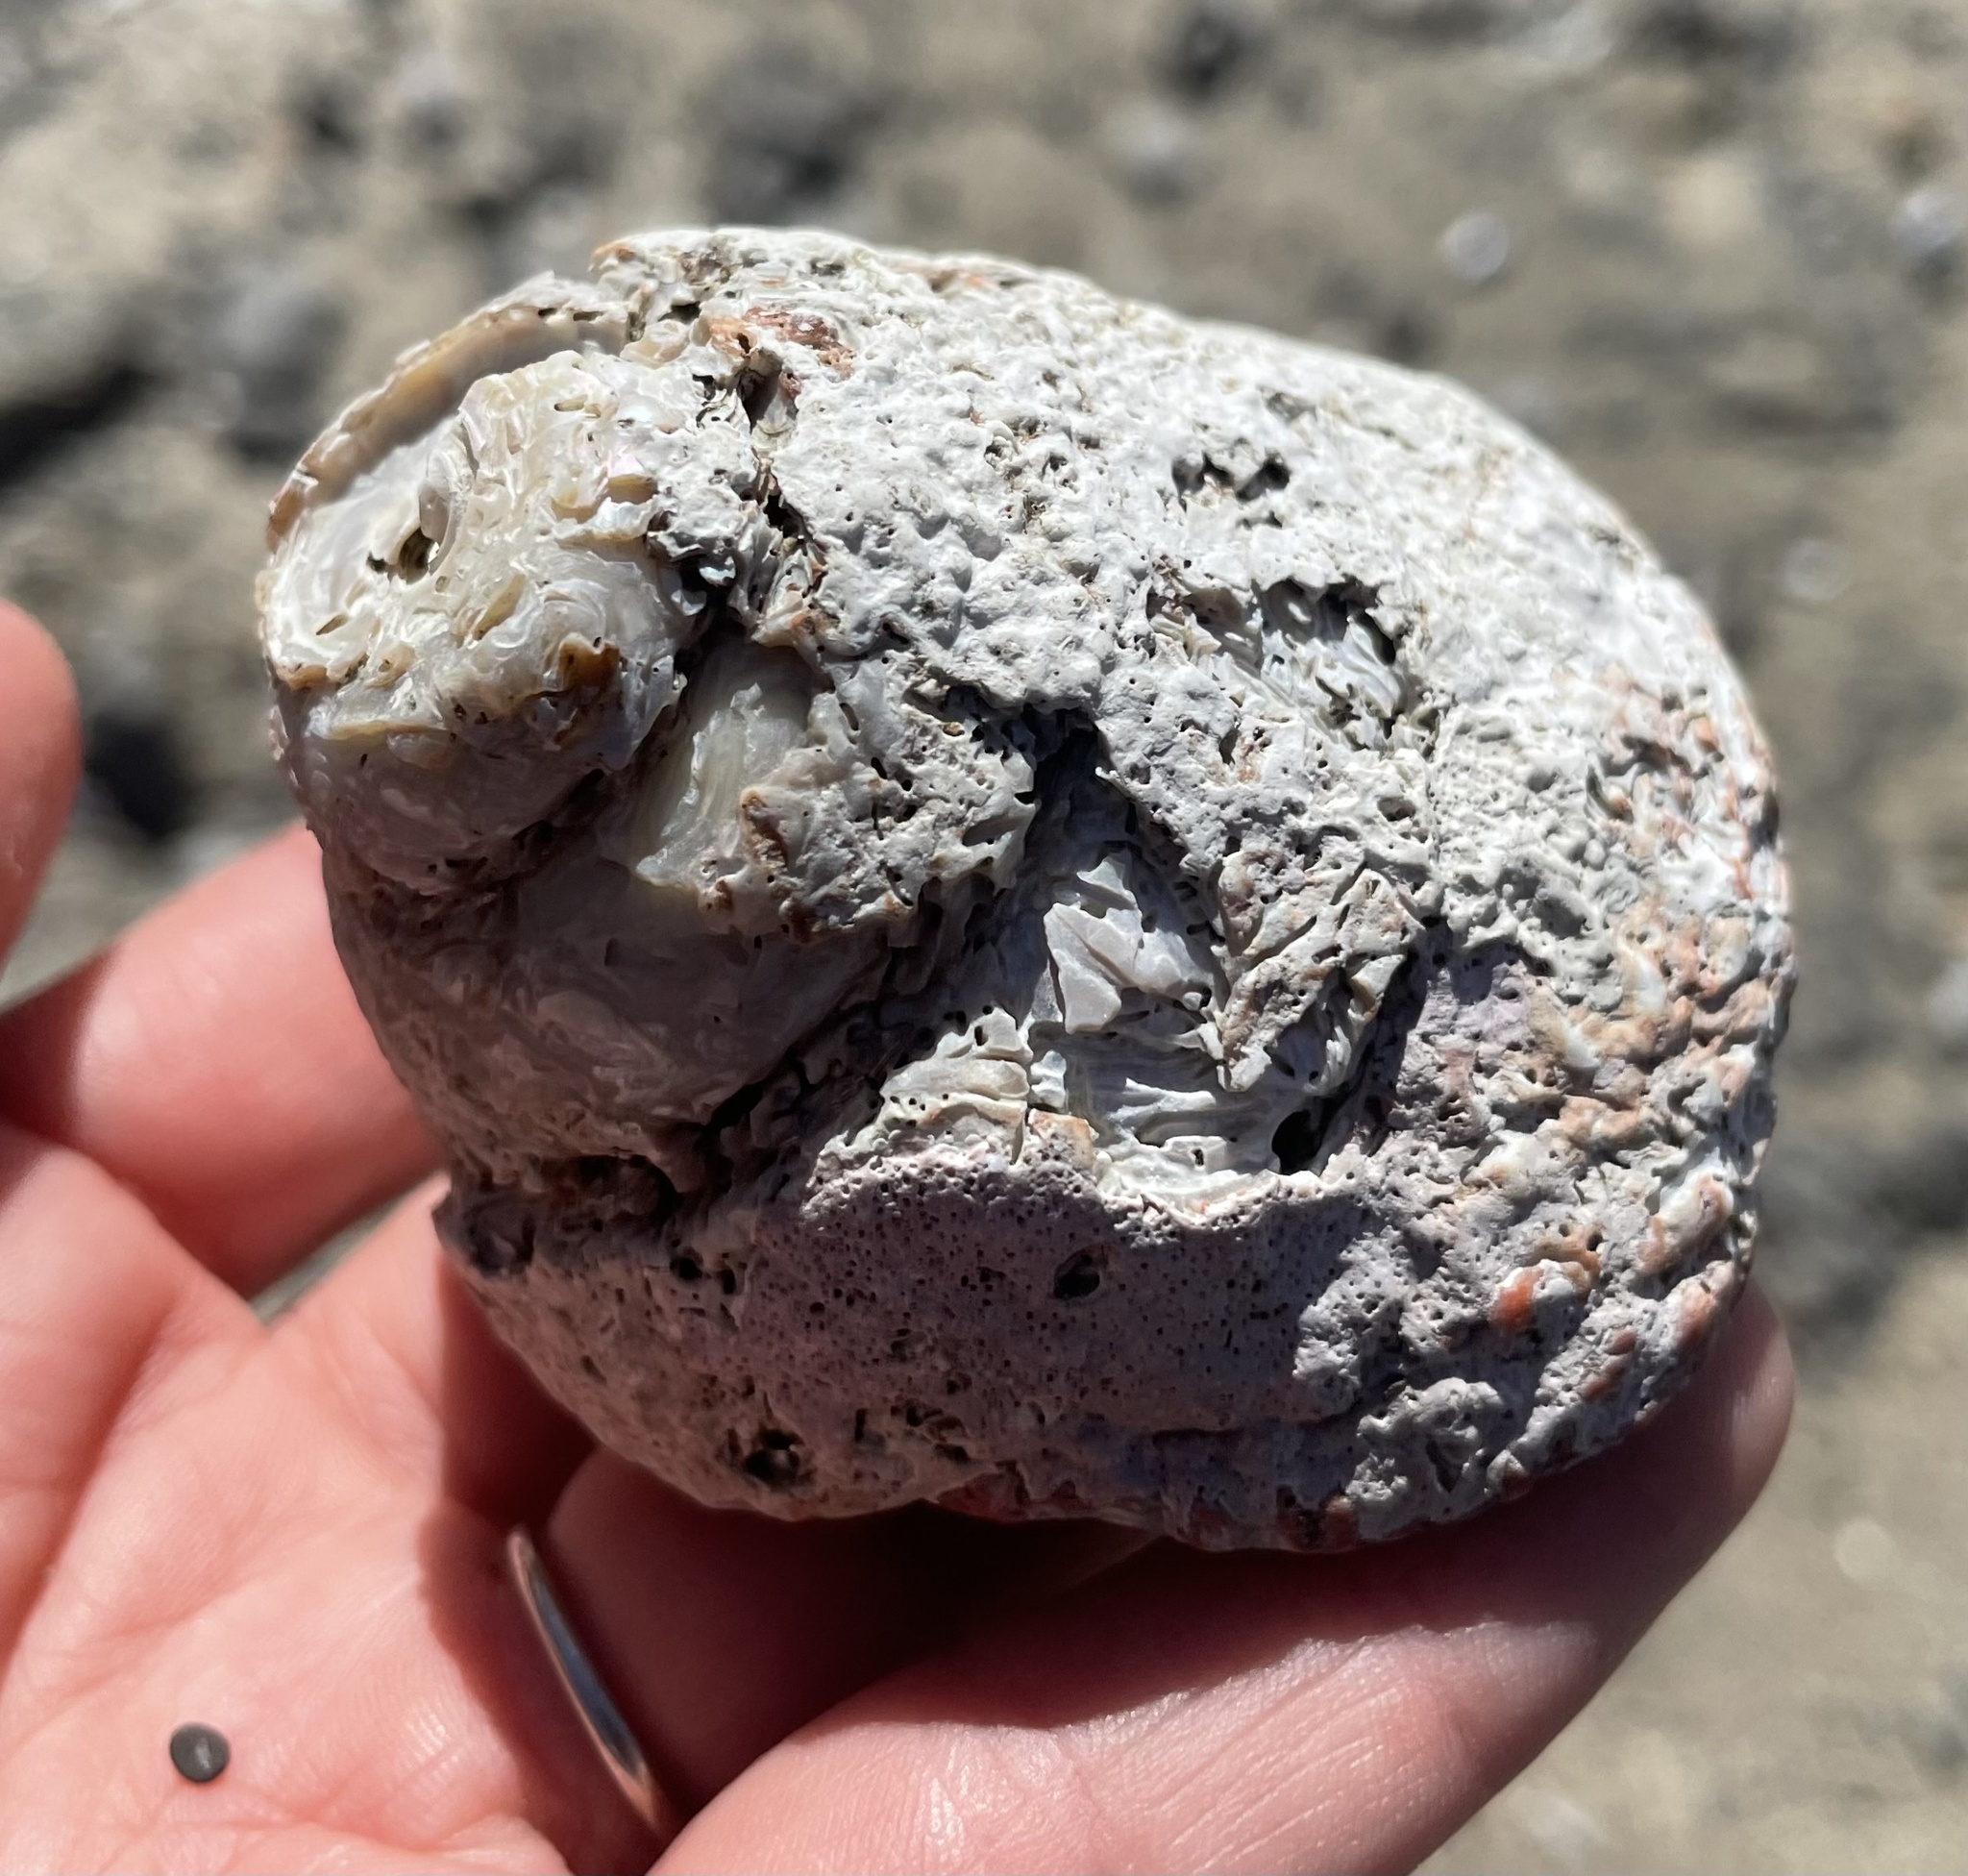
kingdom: Animalia
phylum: Mollusca
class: Gastropoda
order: Trochida
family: Turbinidae
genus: Pomaulax
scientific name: Pomaulax gibberosus
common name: Red turban
